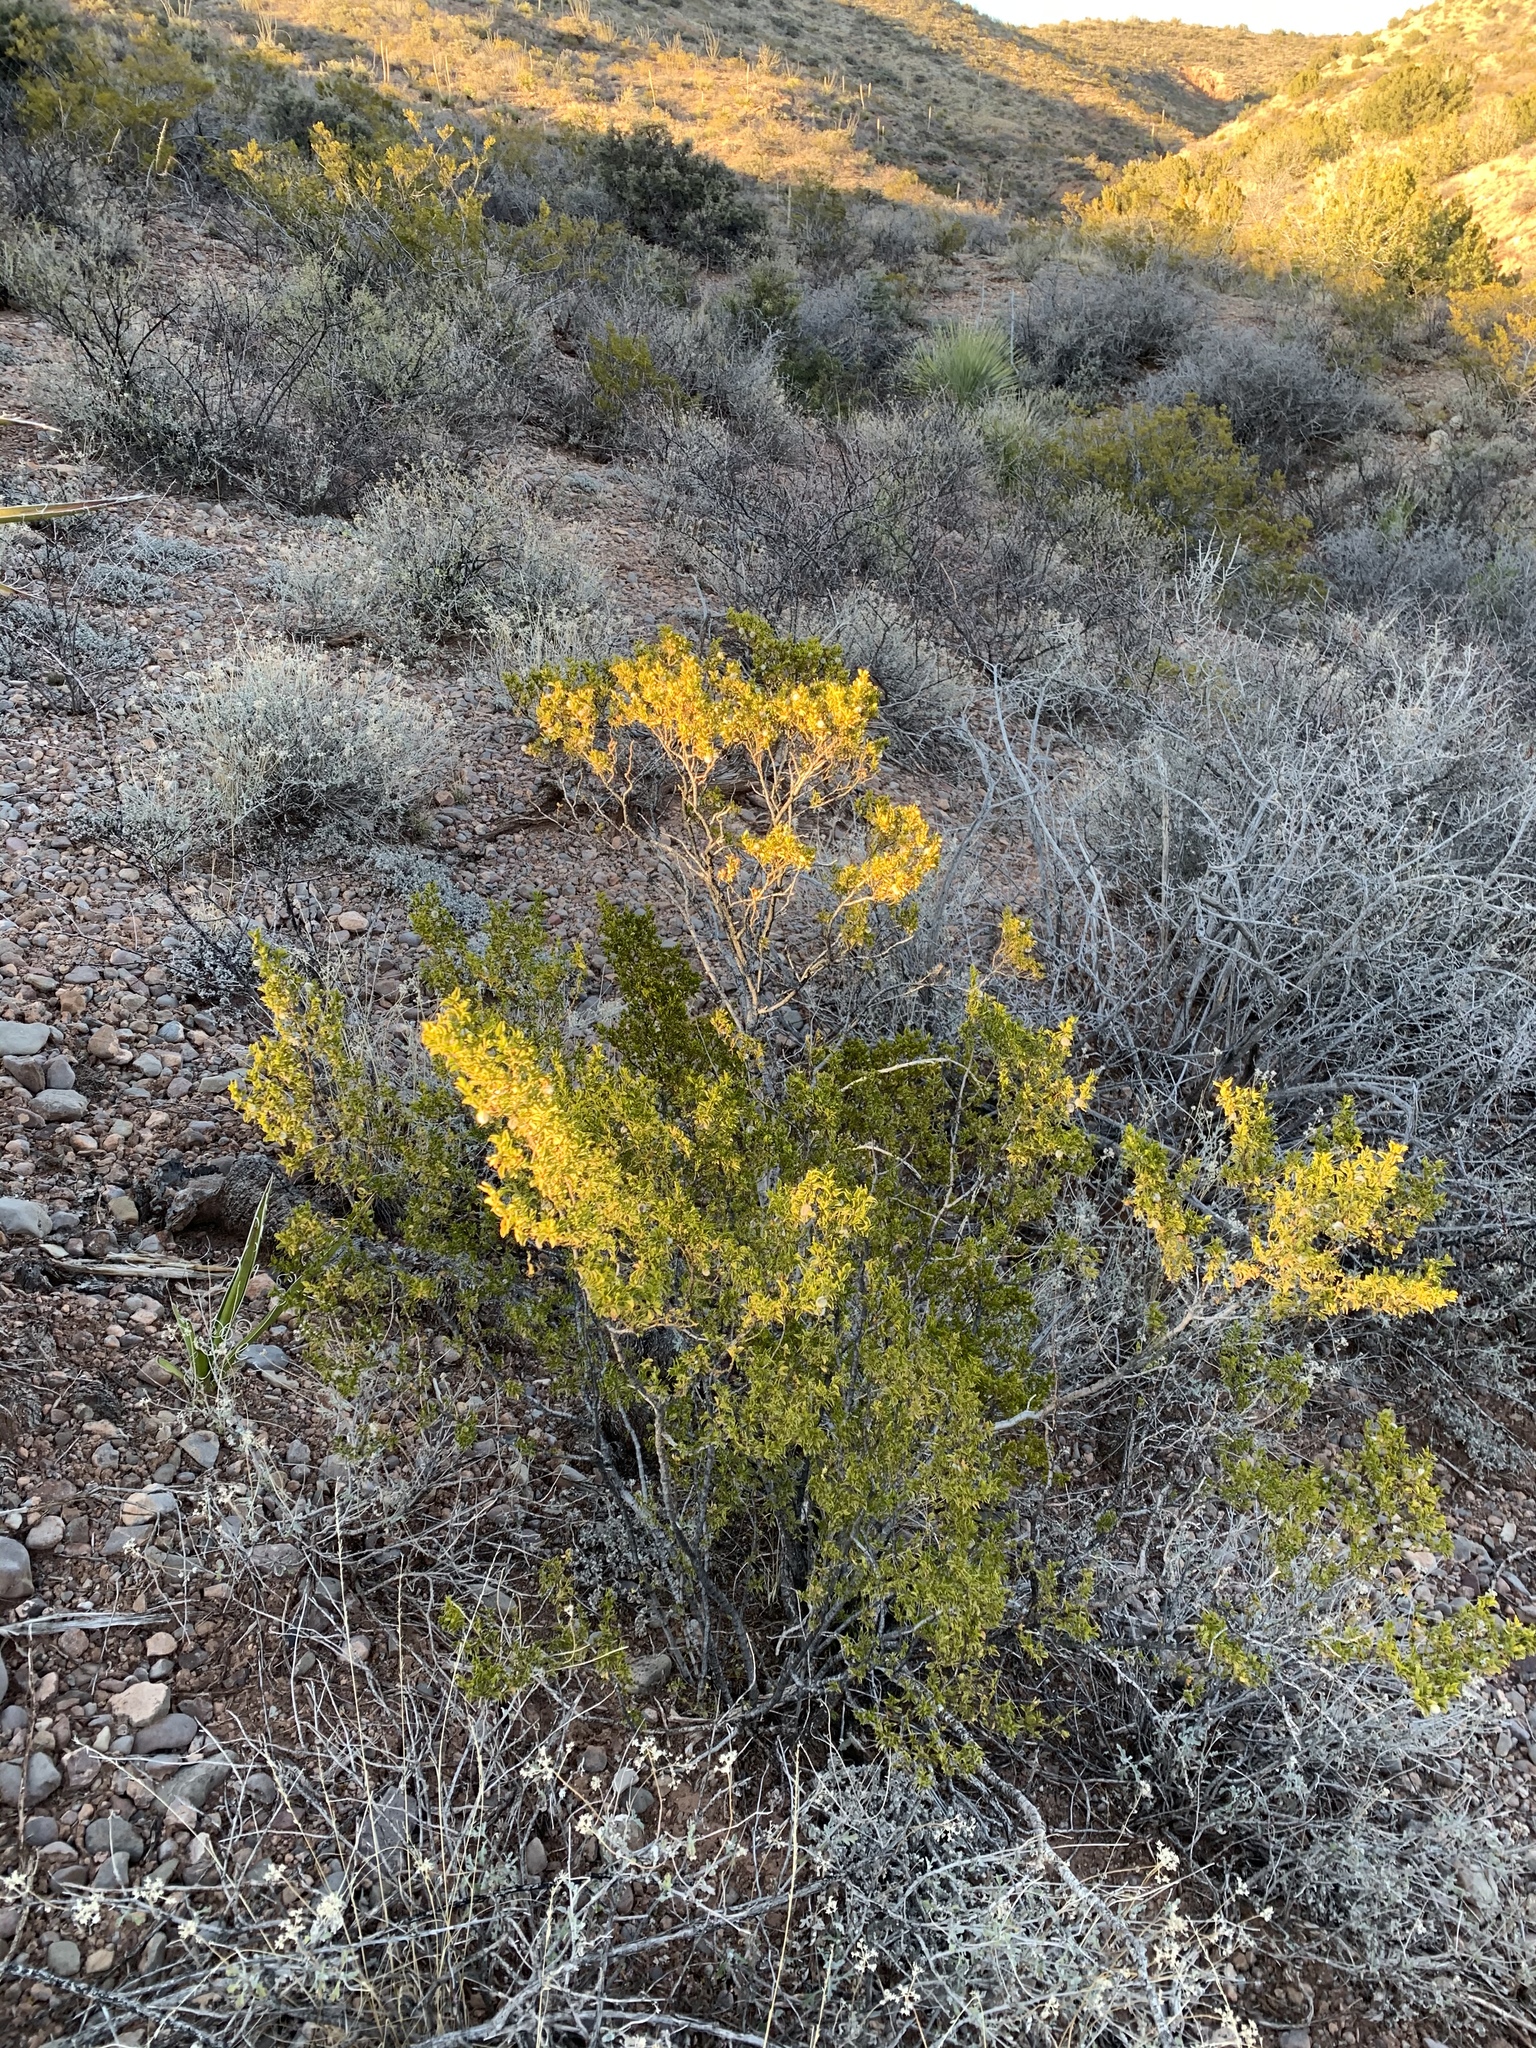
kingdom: Plantae
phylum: Tracheophyta
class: Magnoliopsida
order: Zygophyllales
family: Zygophyllaceae
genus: Larrea
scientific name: Larrea tridentata
